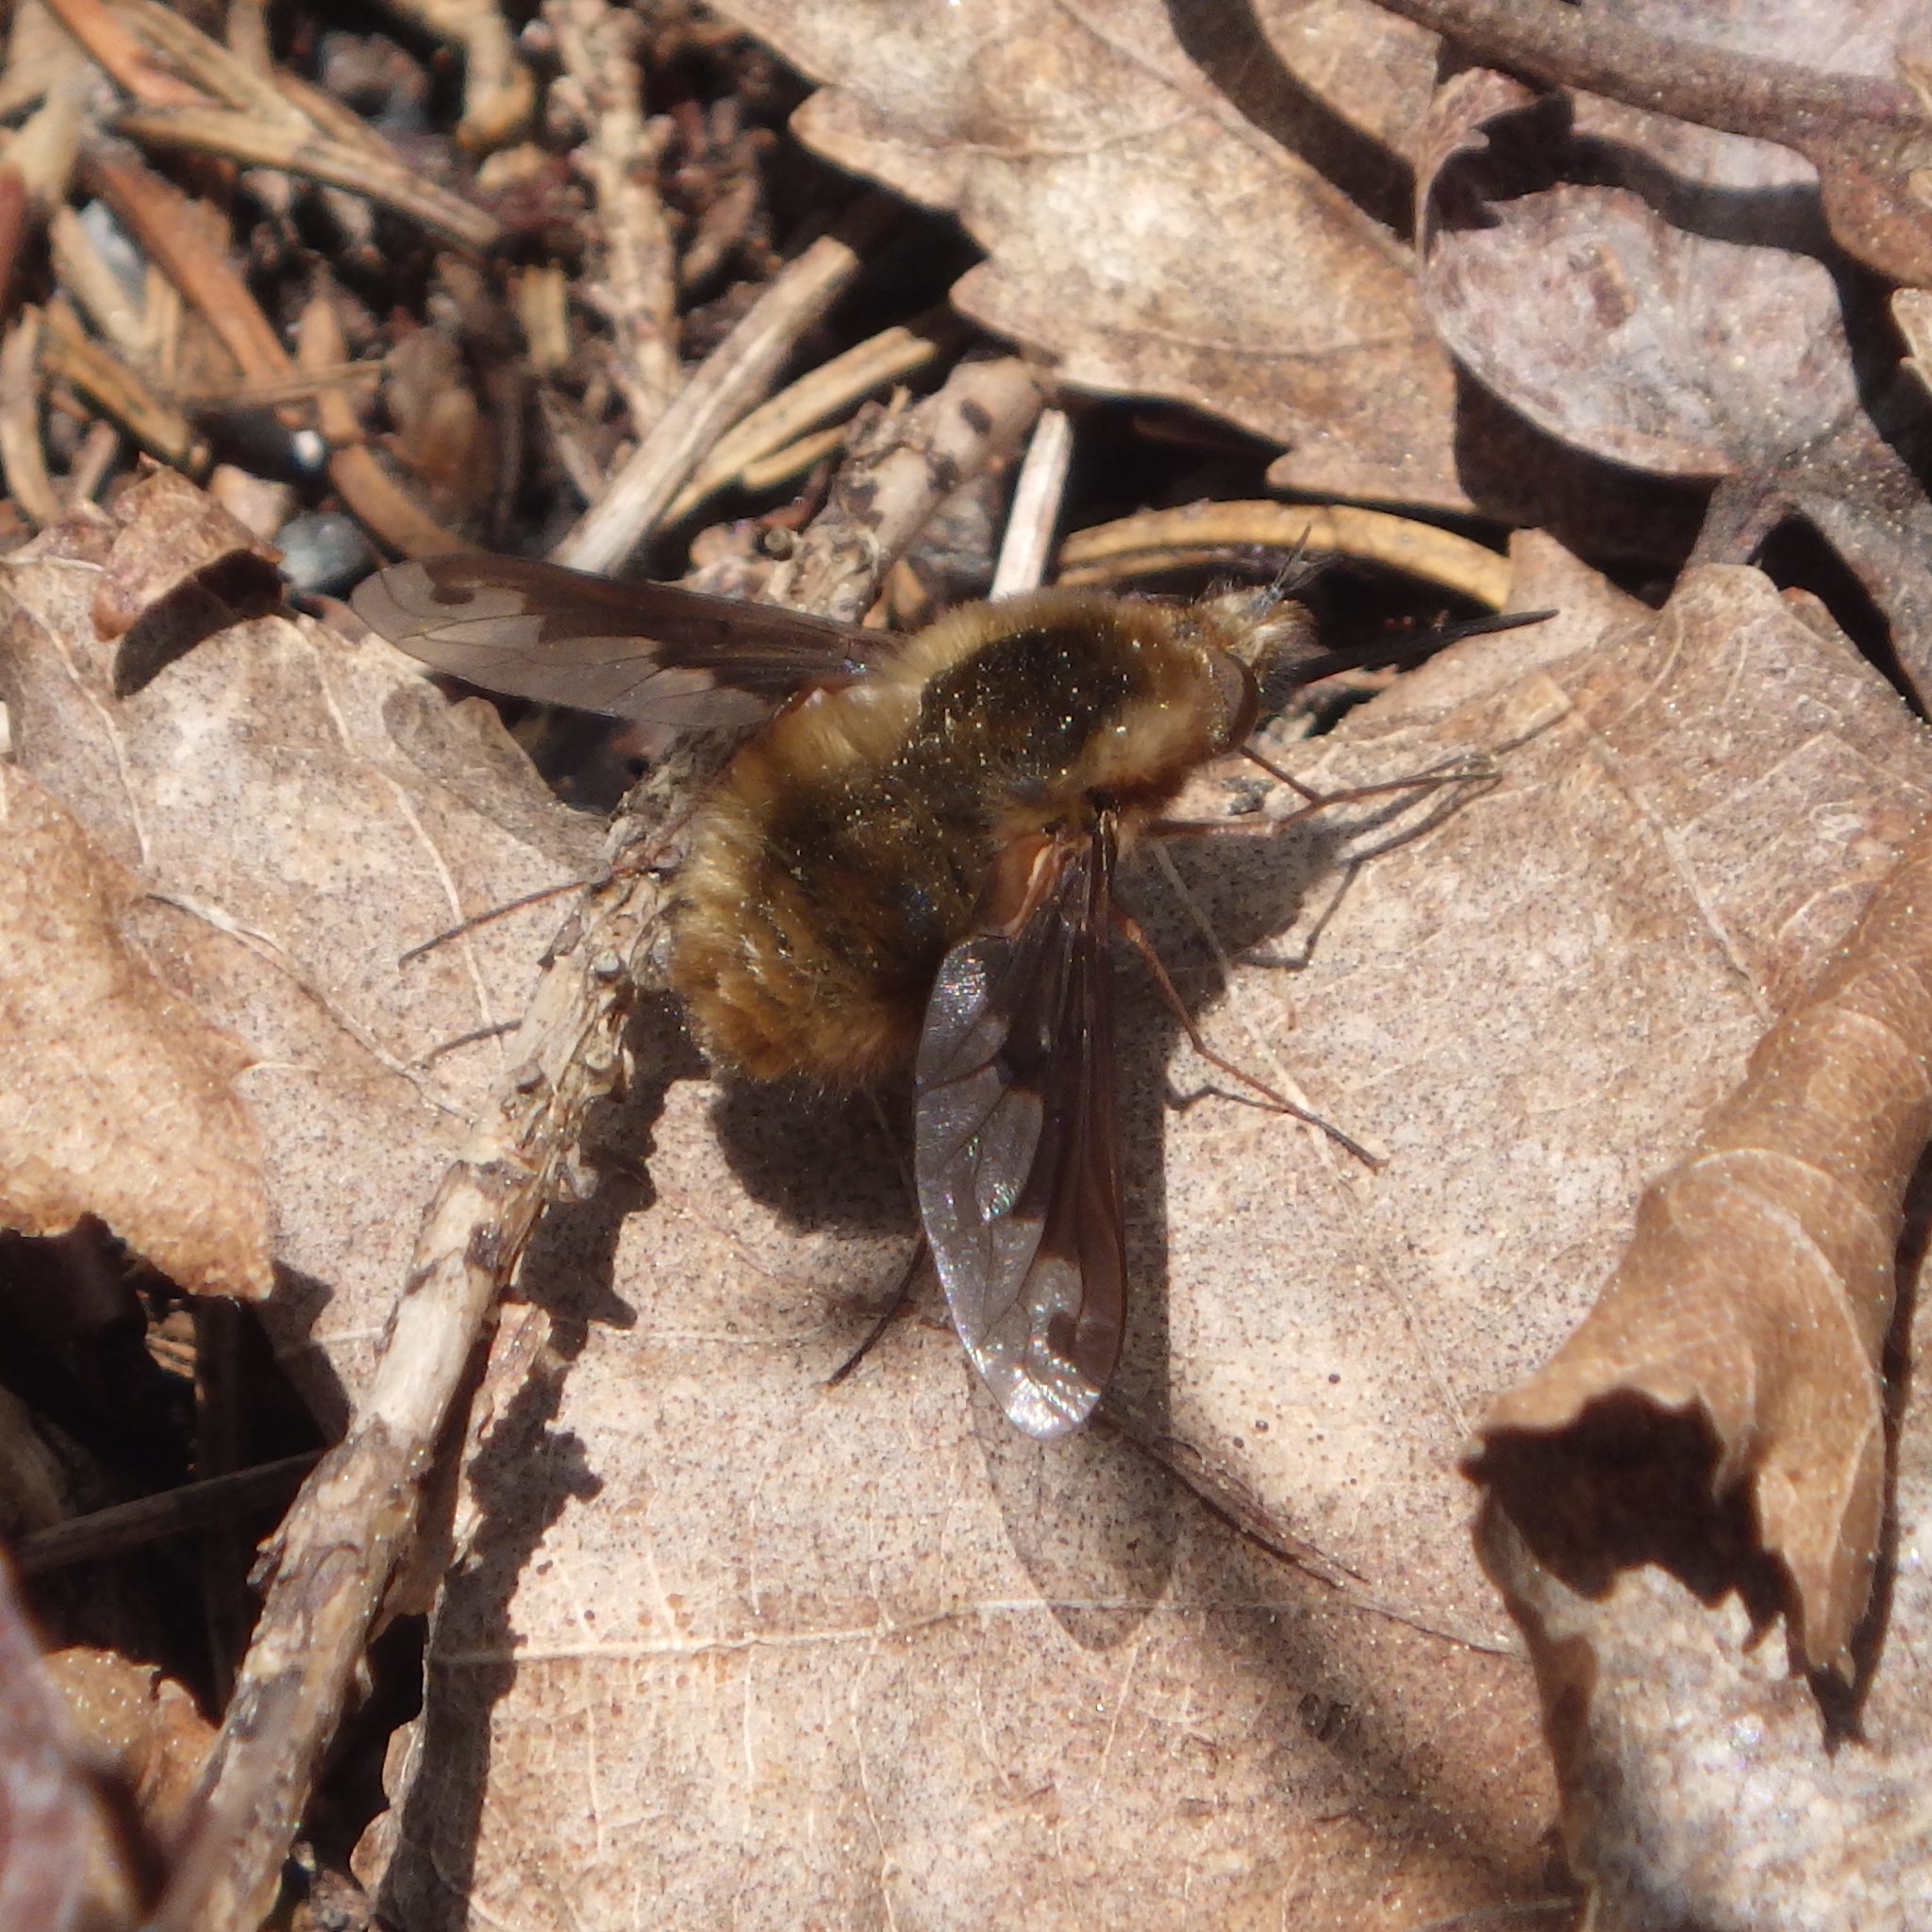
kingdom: Animalia
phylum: Arthropoda
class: Insecta
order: Diptera
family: Bombyliidae
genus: Bombylius
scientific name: Bombylius major
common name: Bee fly
